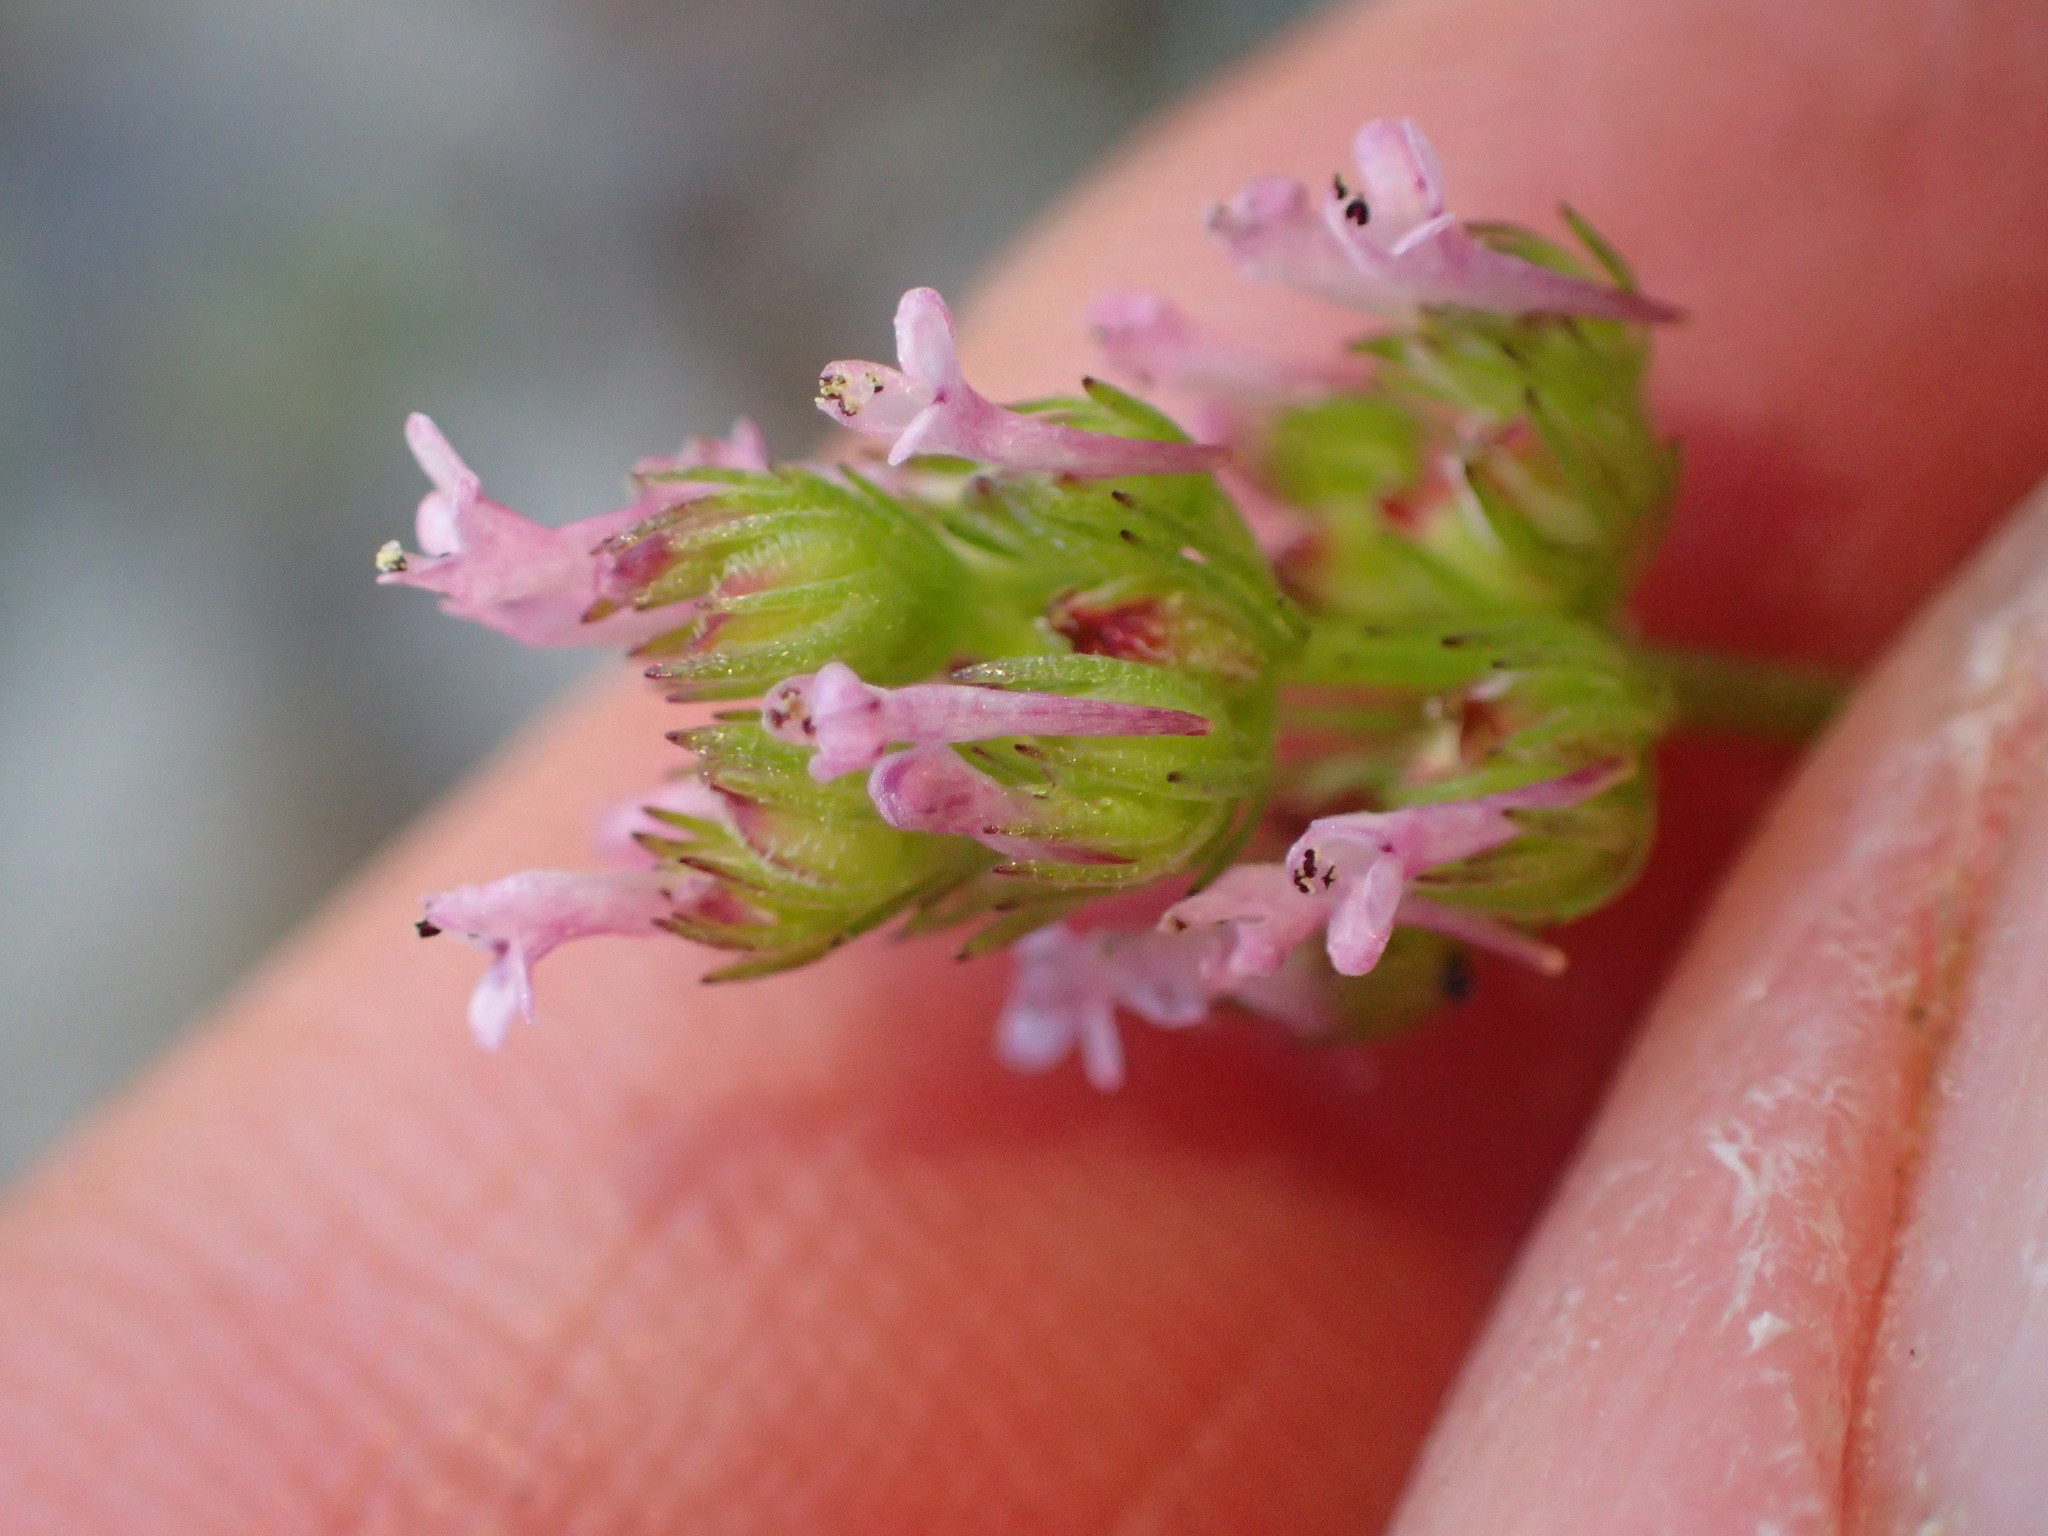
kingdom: Plantae
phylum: Tracheophyta
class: Magnoliopsida
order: Dipsacales
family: Caprifoliaceae
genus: Plectritis
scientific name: Plectritis ciliosa
